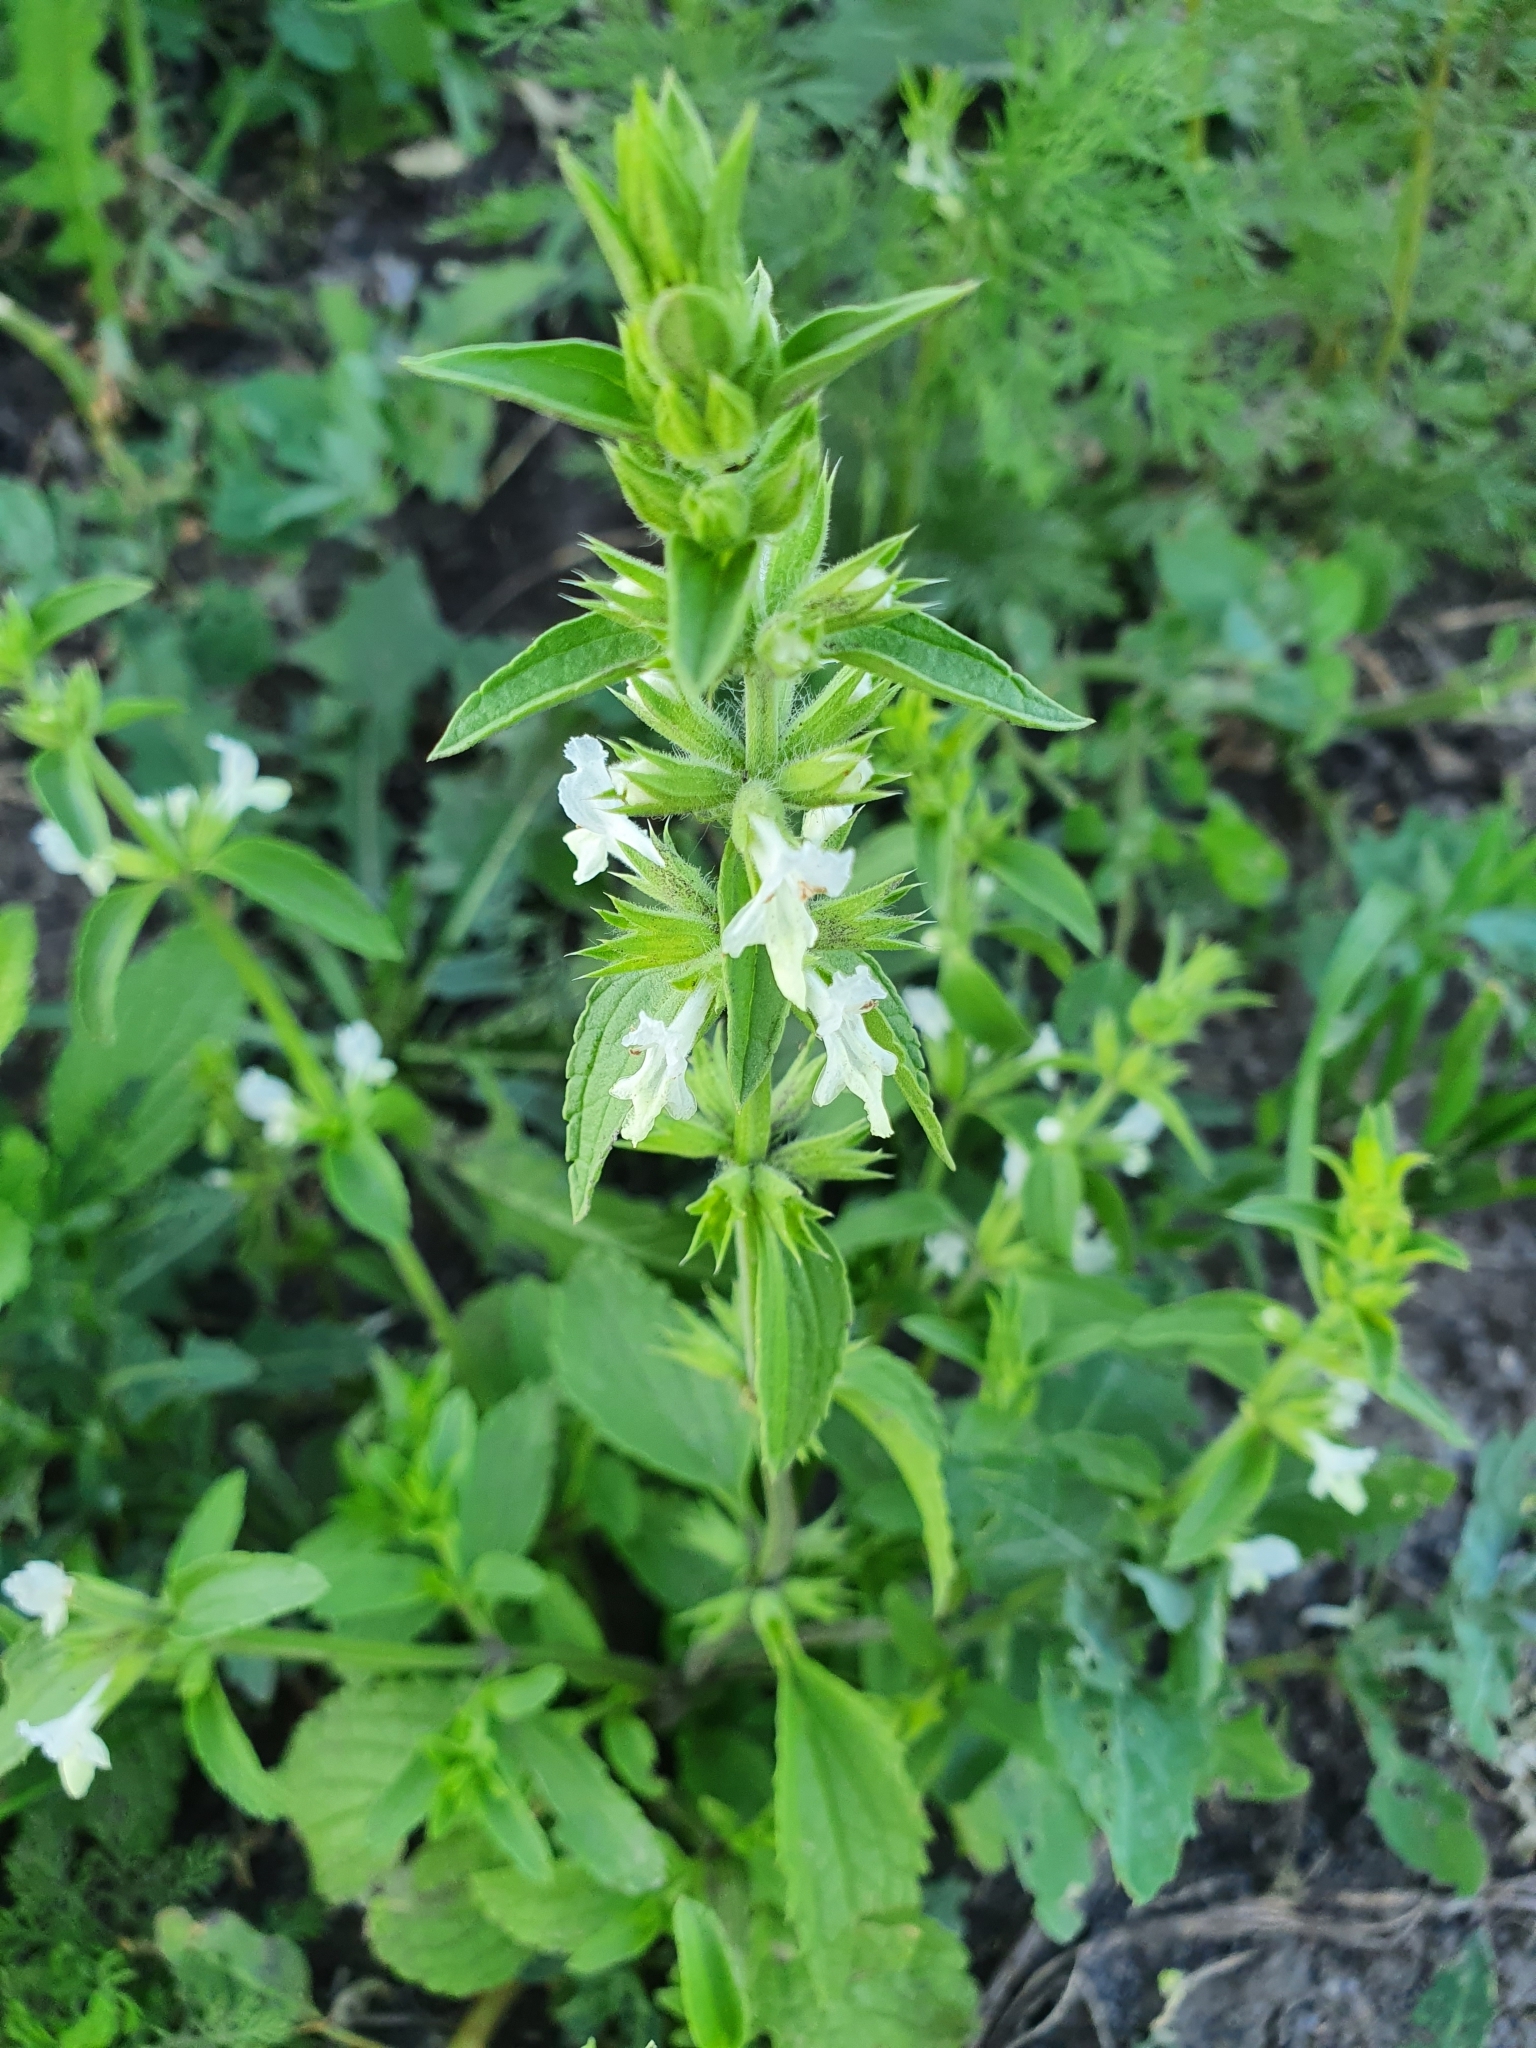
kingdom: Plantae
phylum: Tracheophyta
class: Magnoliopsida
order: Lamiales
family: Lamiaceae
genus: Stachys
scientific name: Stachys annua
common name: Annual yellow-woundwort
